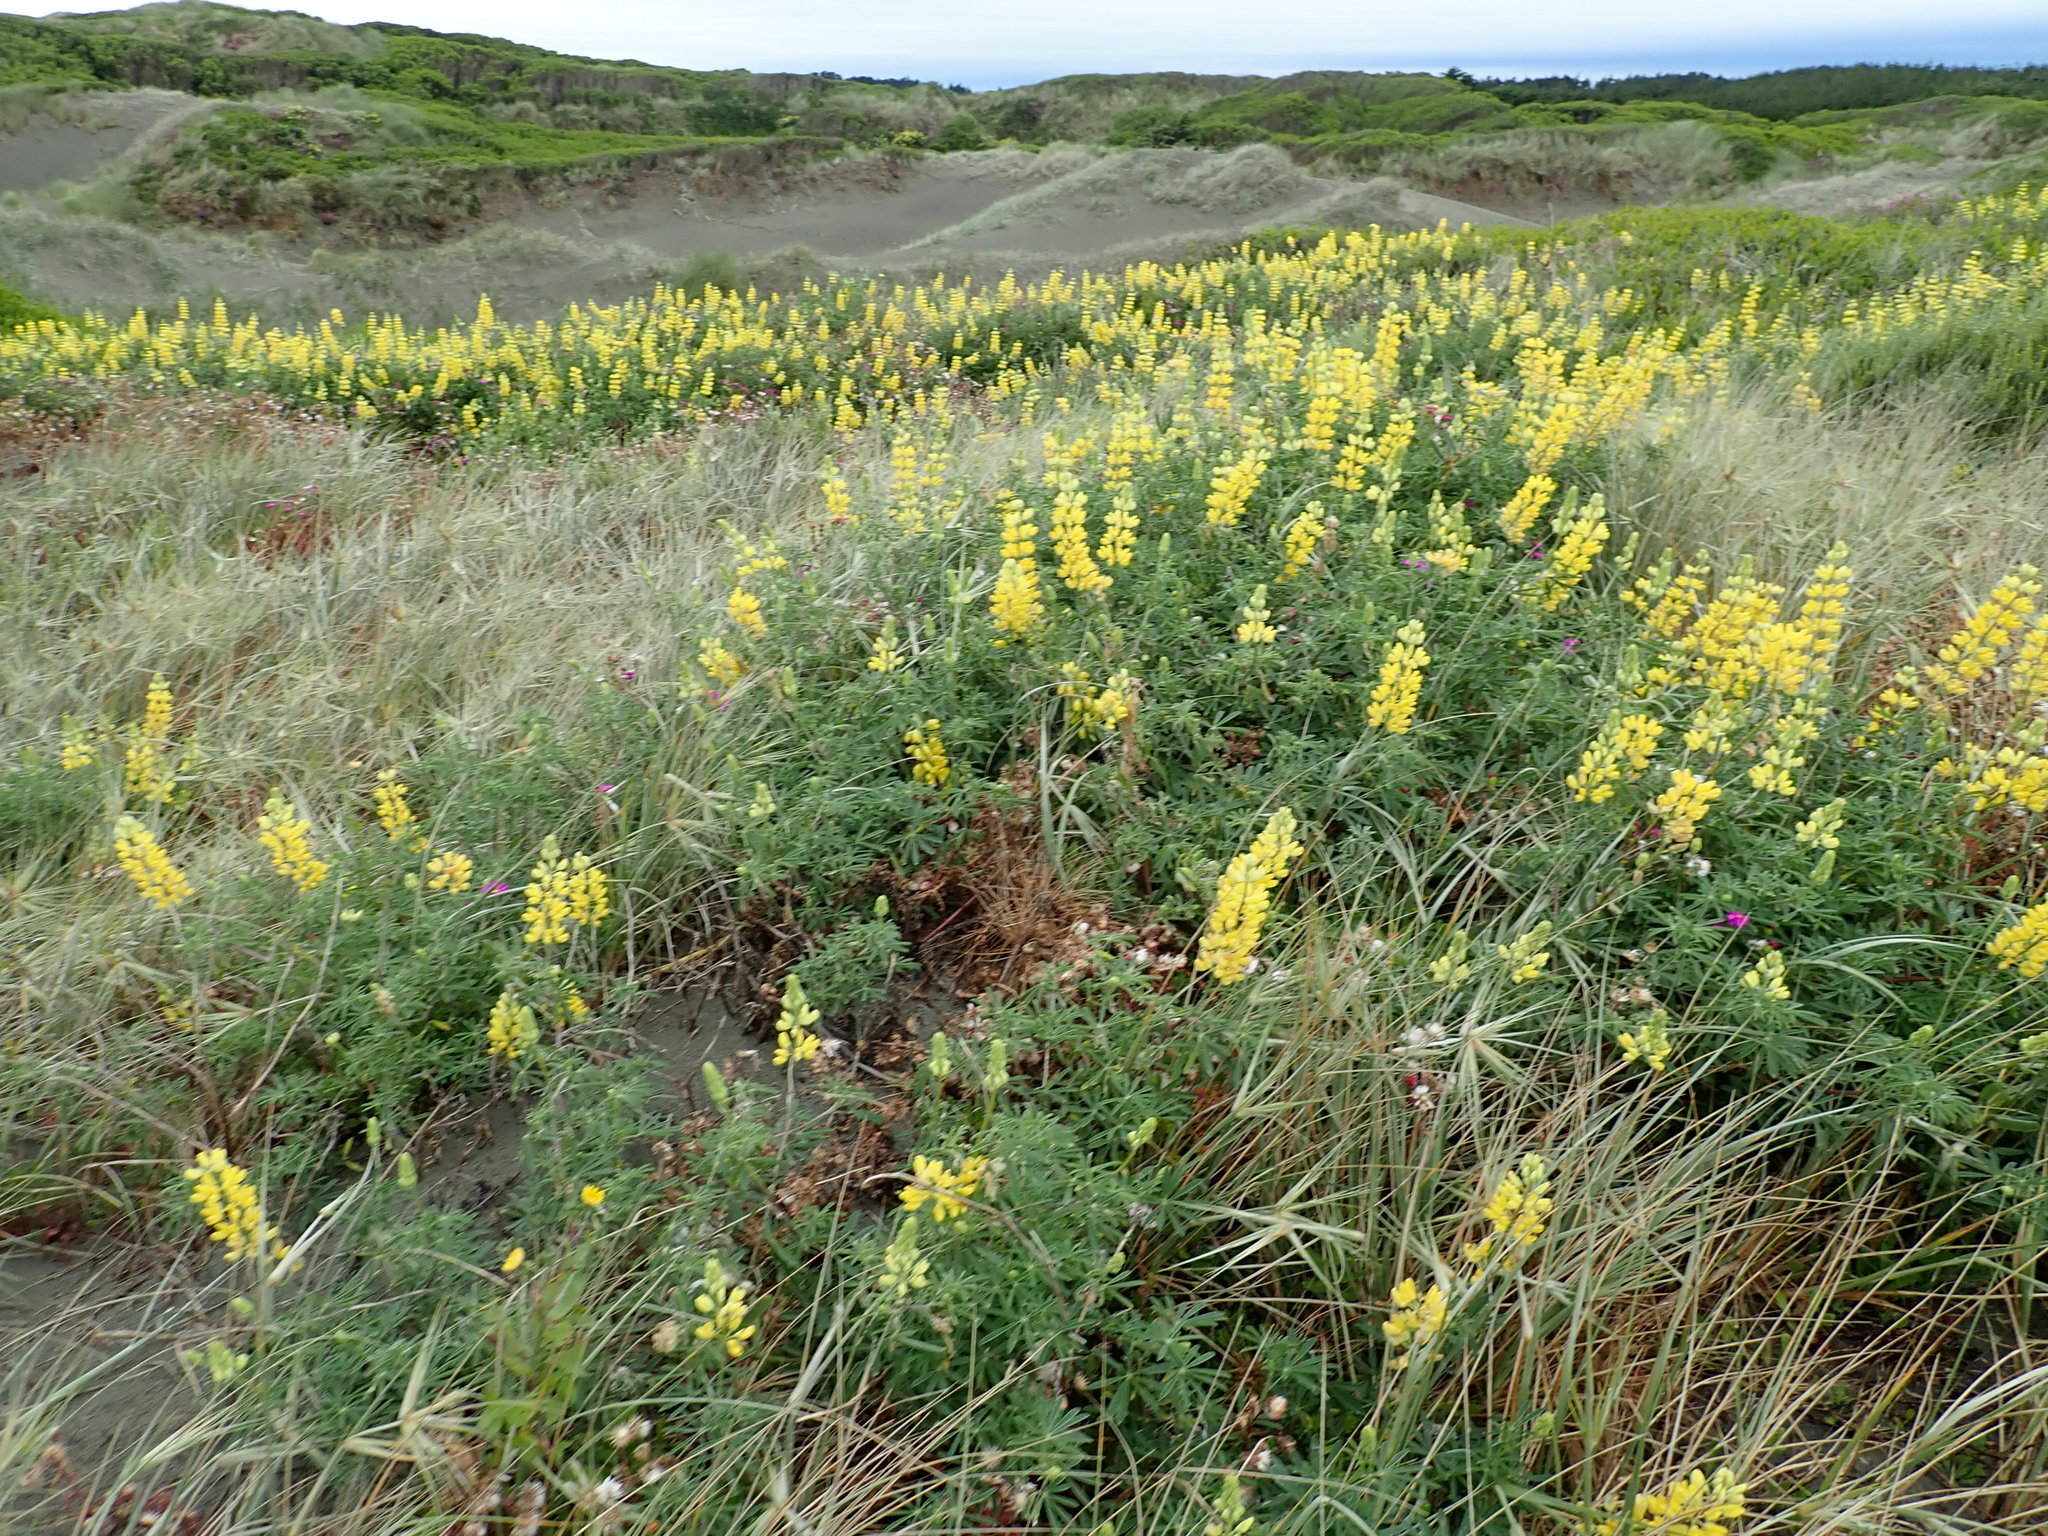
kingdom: Plantae
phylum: Tracheophyta
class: Magnoliopsida
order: Fabales
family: Fabaceae
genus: Lupinus
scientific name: Lupinus arboreus
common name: Yellow bush lupine
